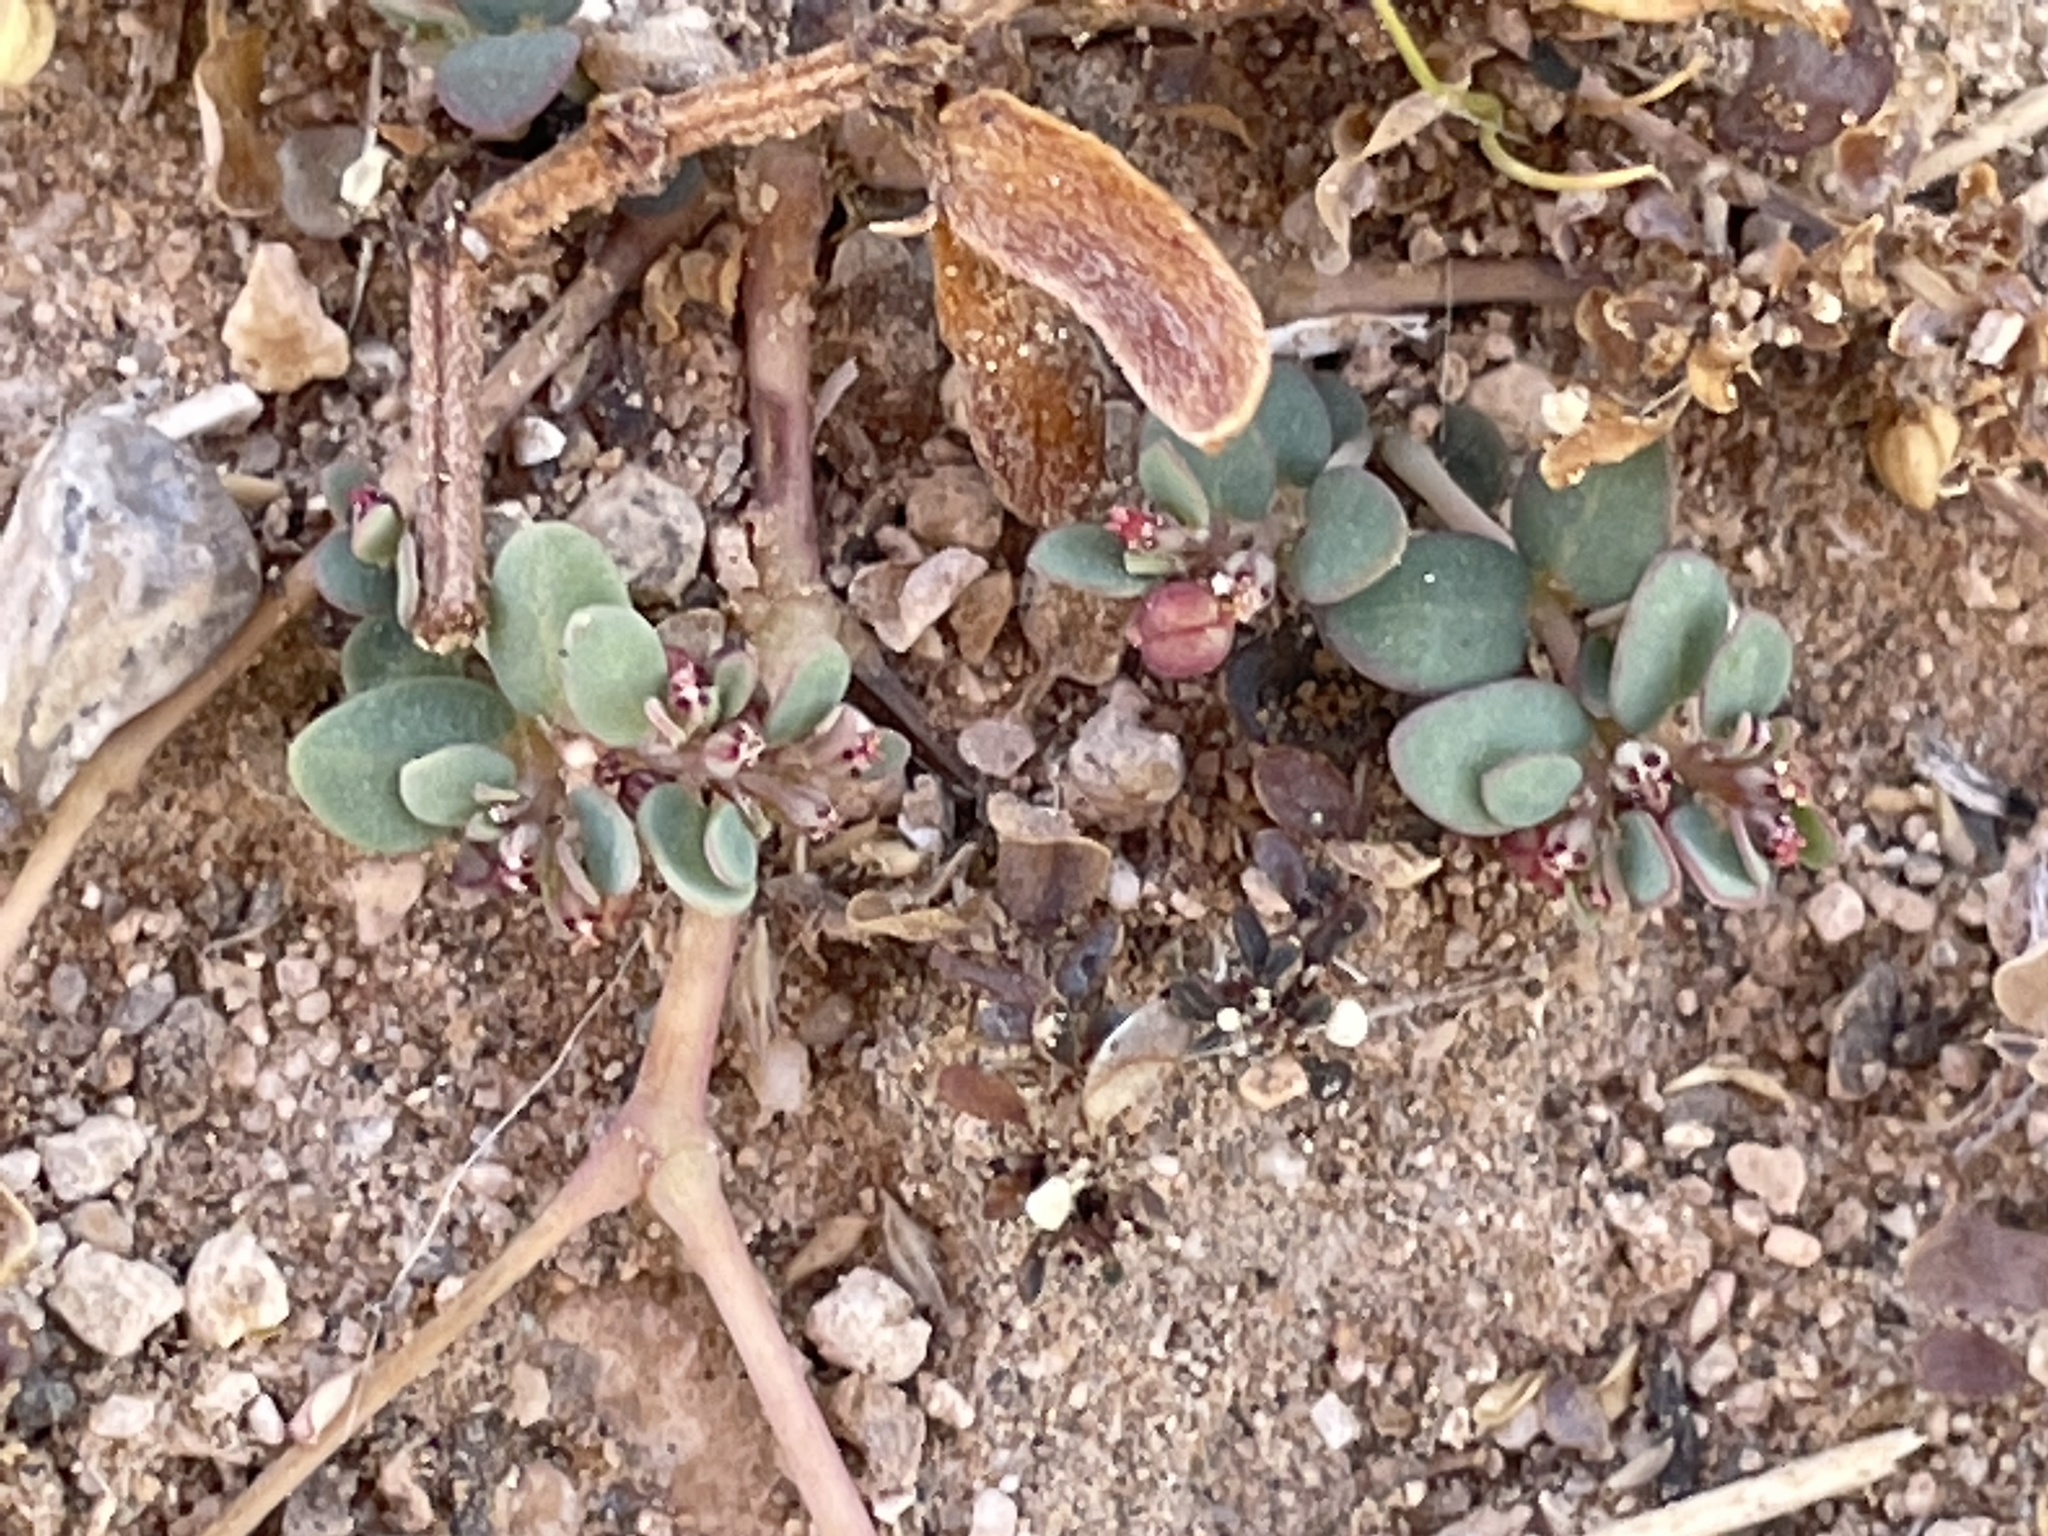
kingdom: Plantae
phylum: Tracheophyta
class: Magnoliopsida
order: Malpighiales
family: Euphorbiaceae
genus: Euphorbia
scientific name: Euphorbia micromera
